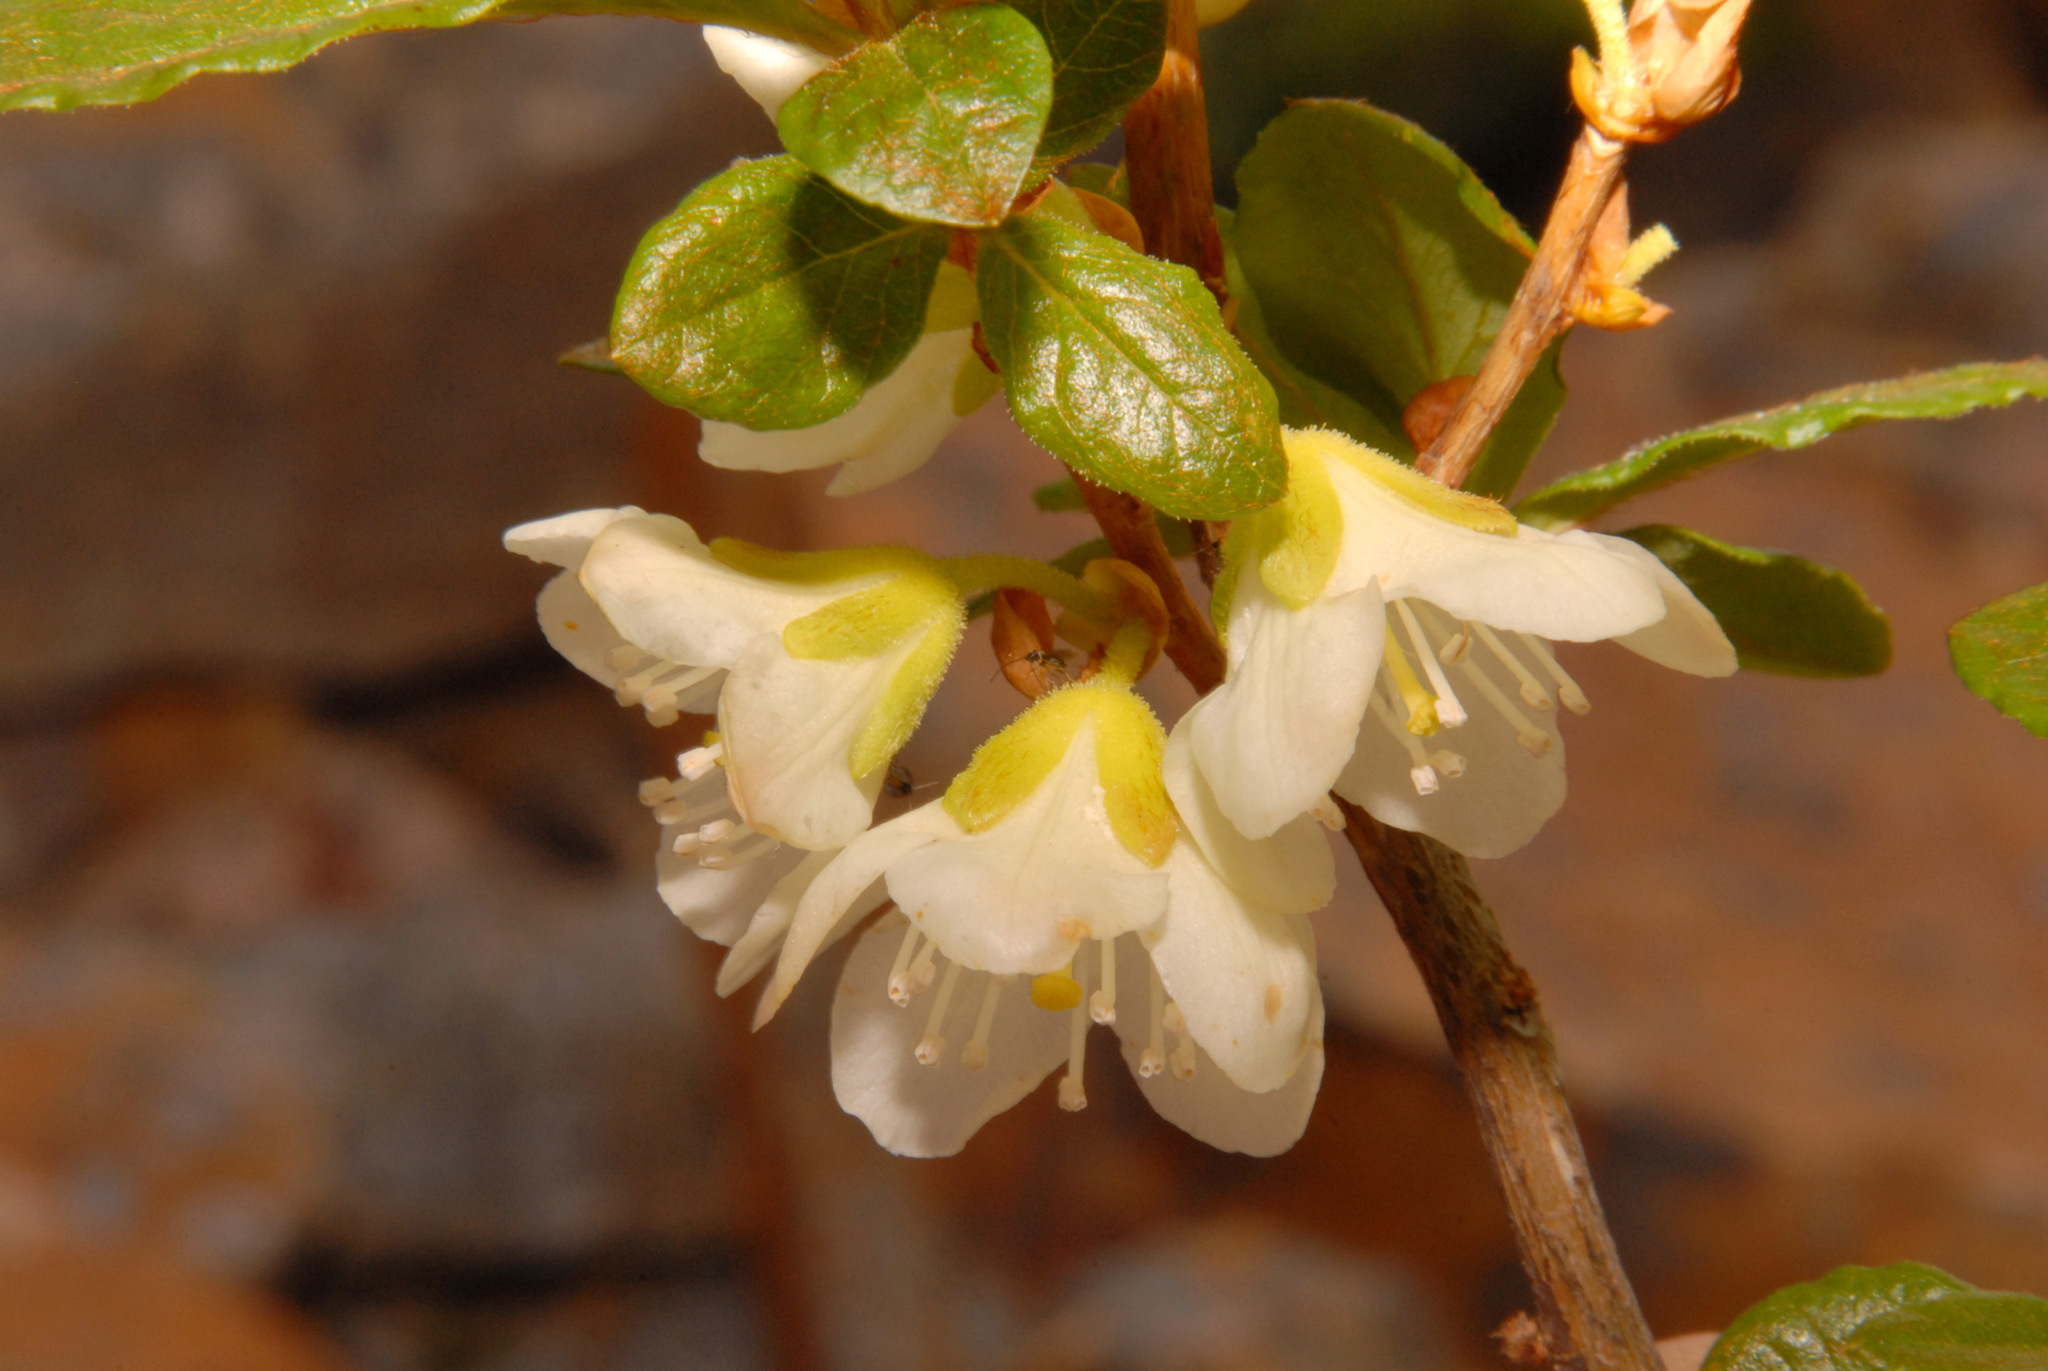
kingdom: Plantae
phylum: Tracheophyta
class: Magnoliopsida
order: Ericales
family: Ericaceae
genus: Rhododendron
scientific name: Rhododendron albiflorum
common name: White rhododendron
